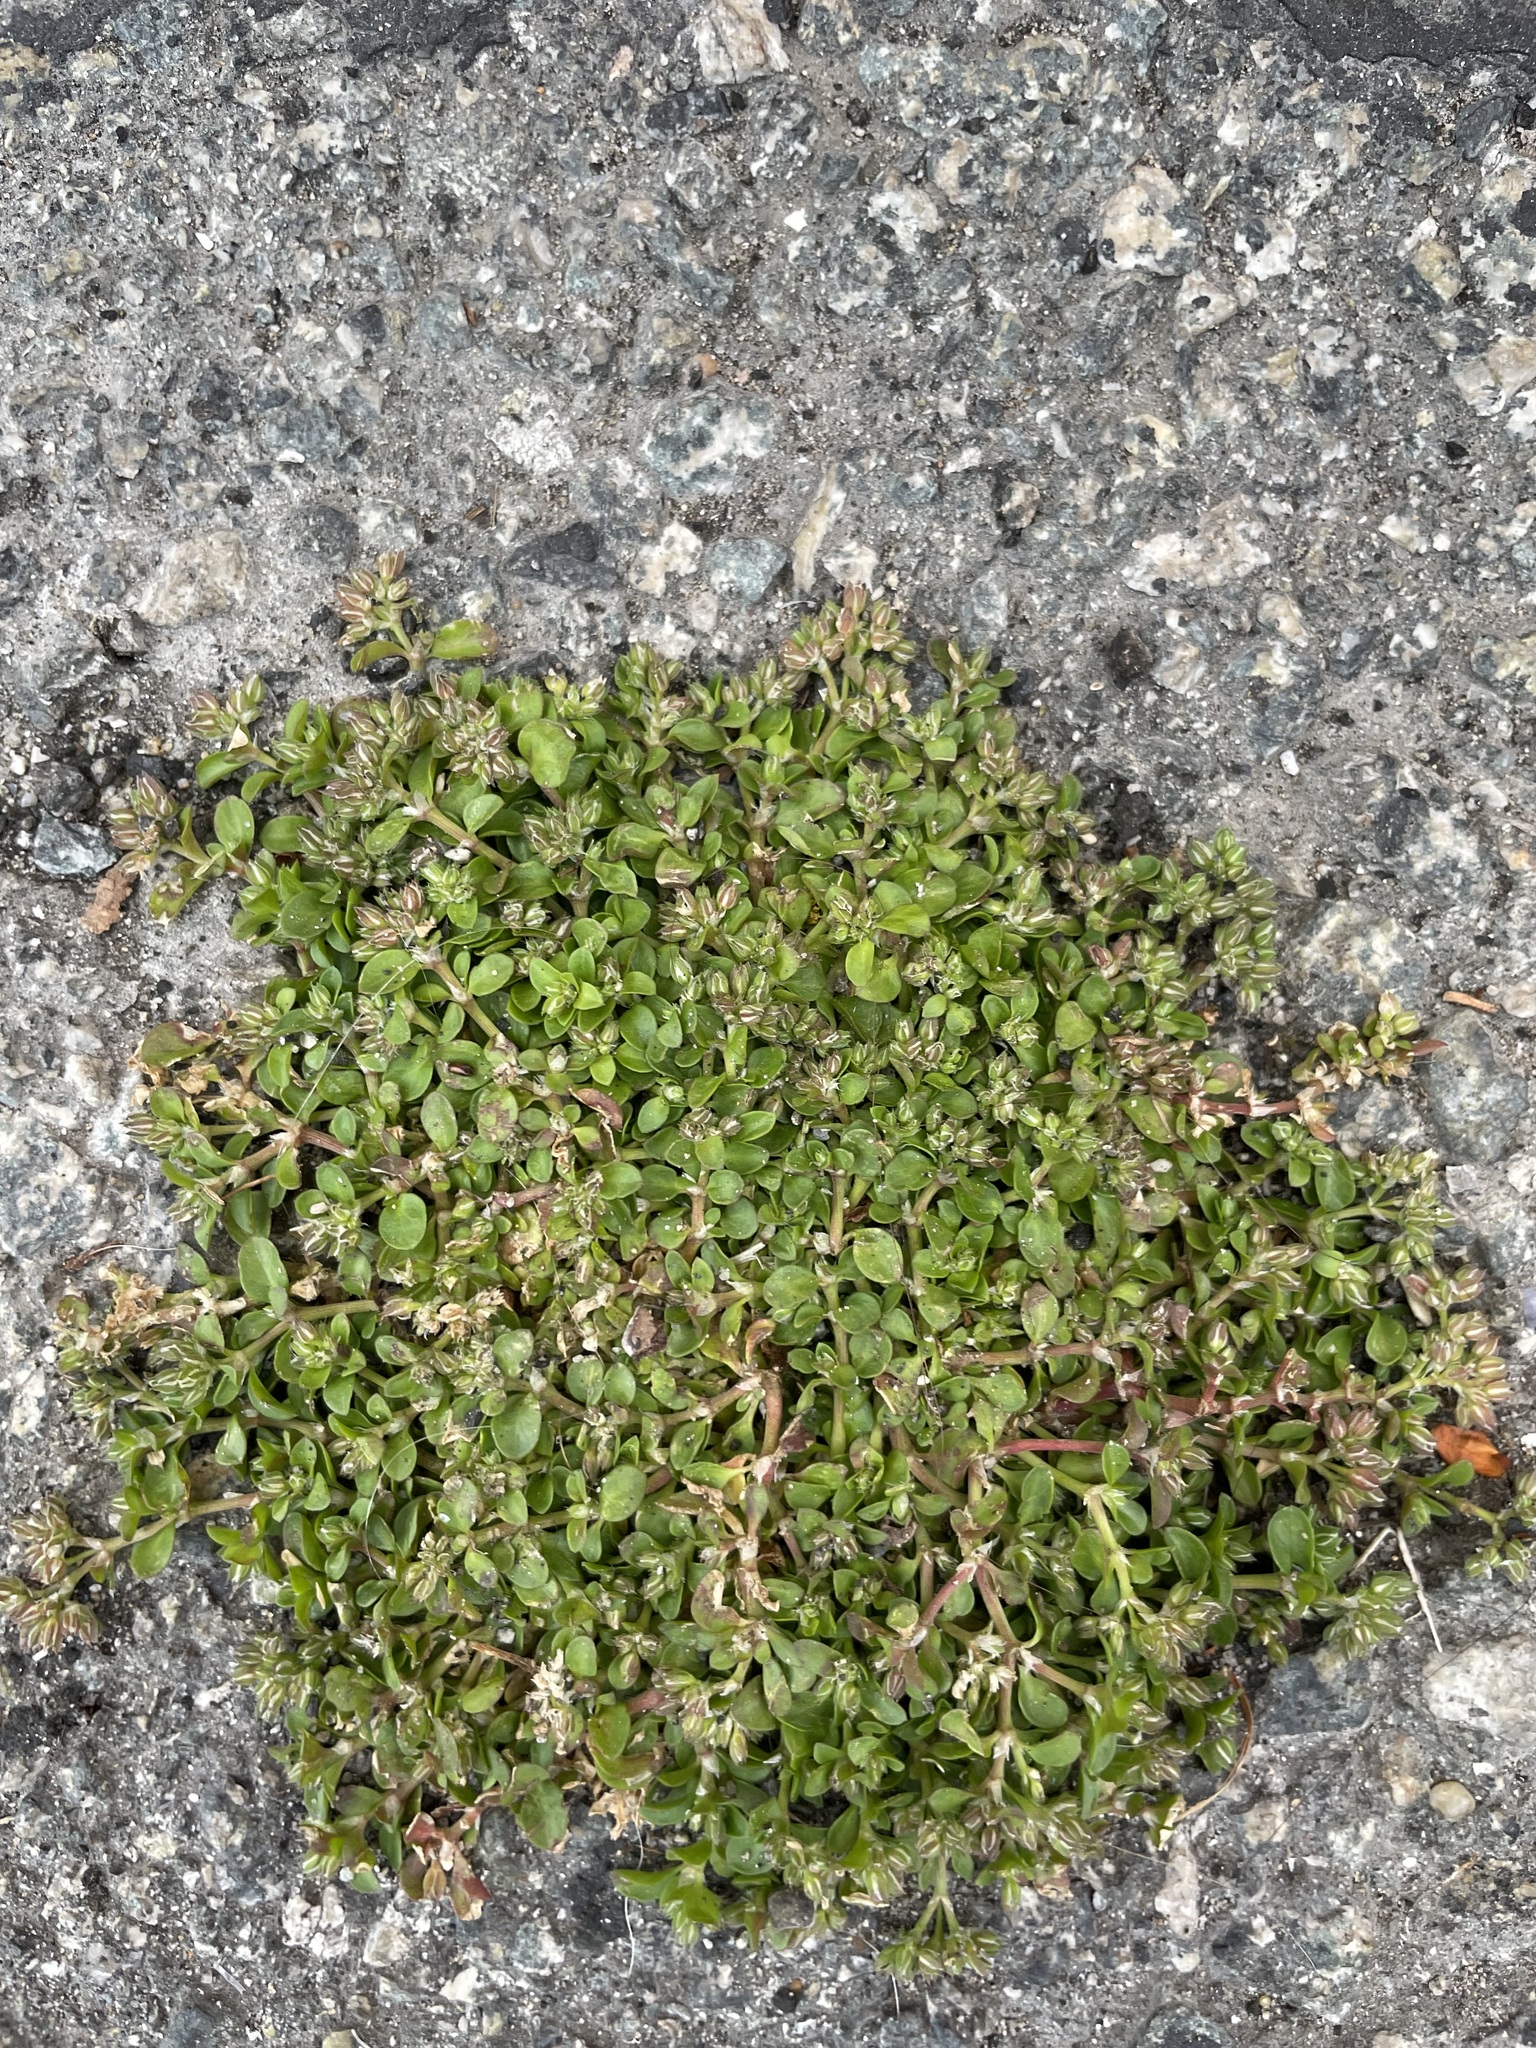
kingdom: Plantae
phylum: Tracheophyta
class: Magnoliopsida
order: Caryophyllales
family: Caryophyllaceae
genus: Polycarpon
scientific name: Polycarpon tetraphyllum
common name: Four-leaved all-seed
